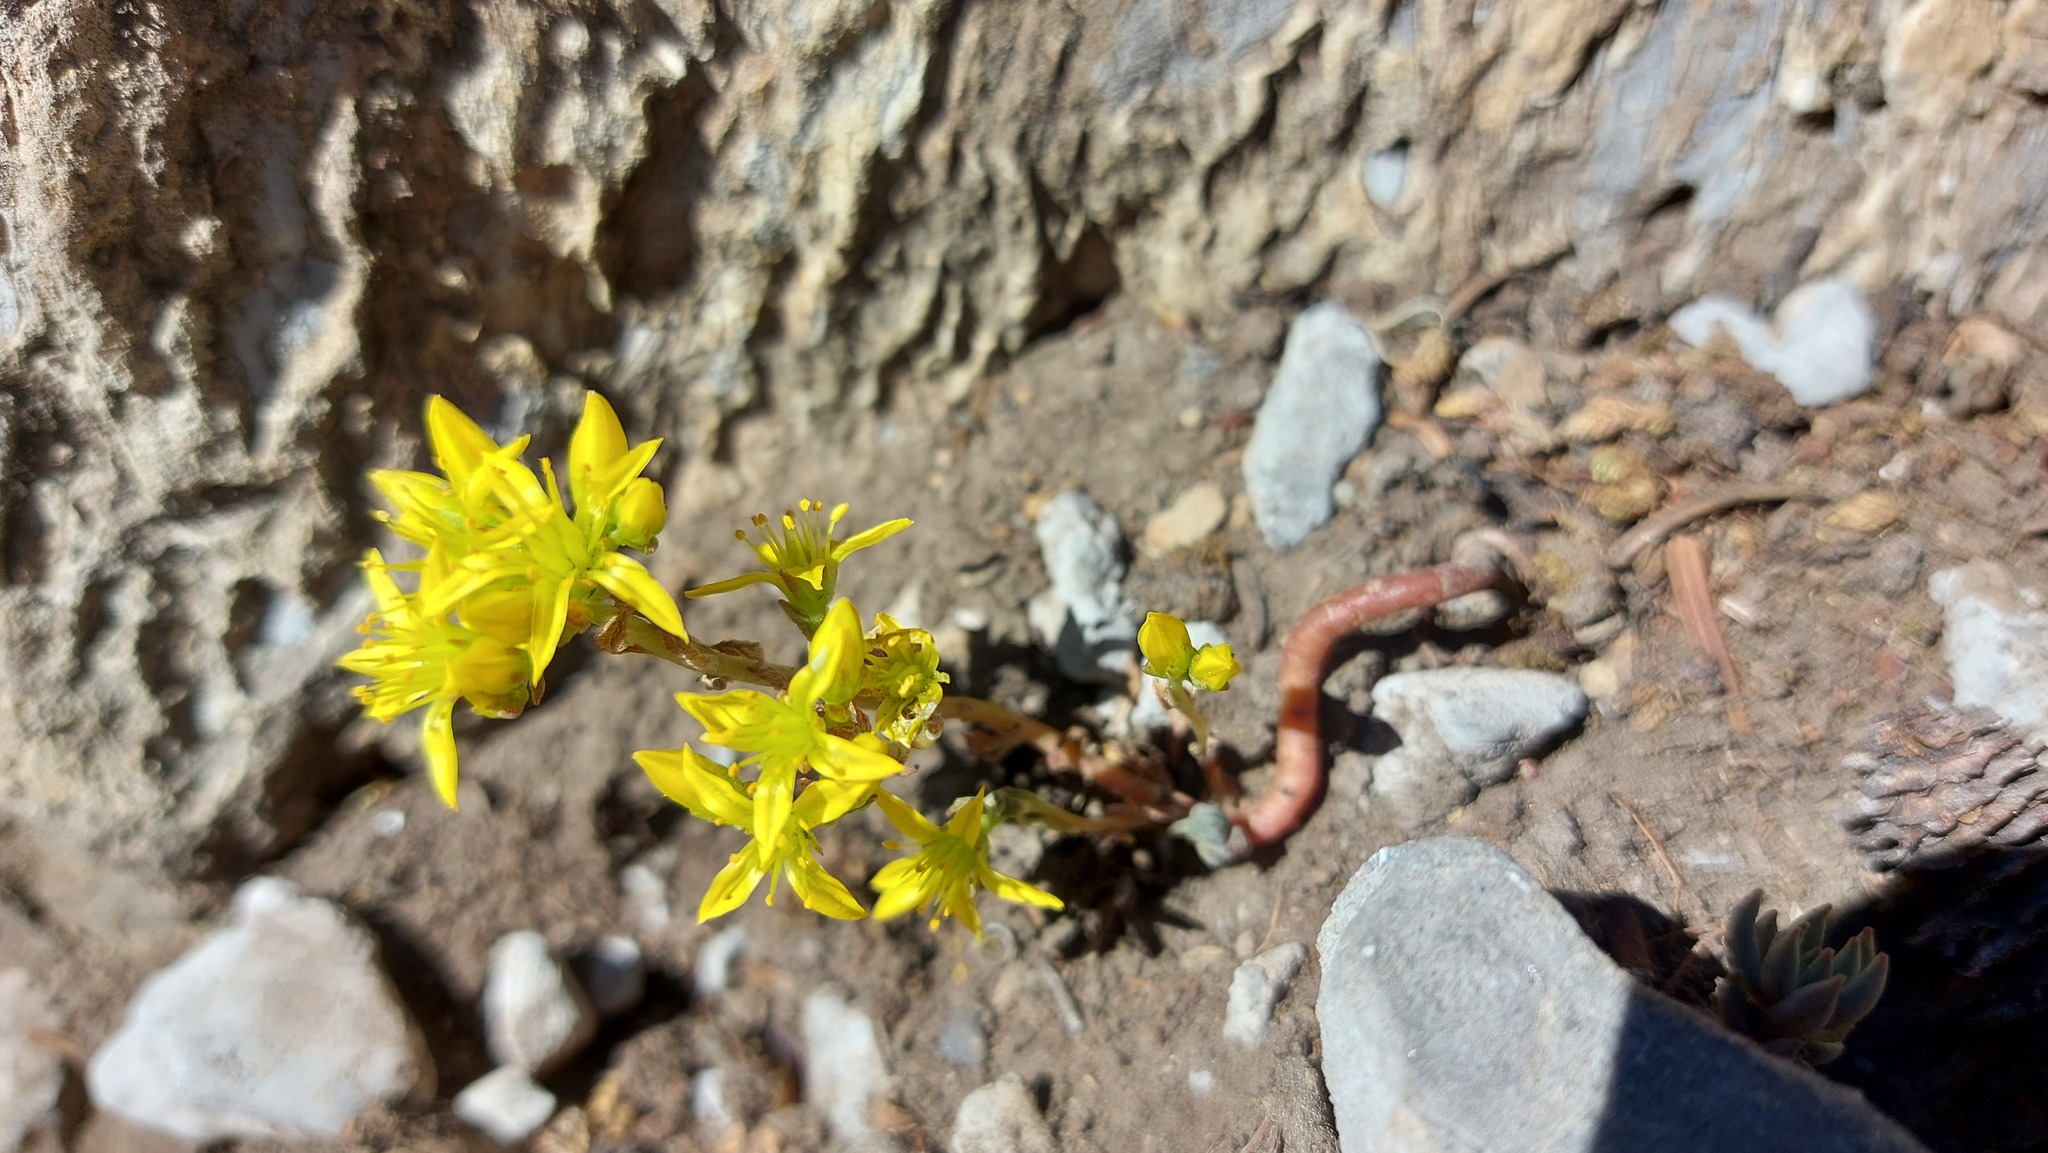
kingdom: Plantae
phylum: Tracheophyta
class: Magnoliopsida
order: Saxifragales
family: Crassulaceae
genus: Sedum
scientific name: Sedum lanceolatum
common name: Common stonecrop
